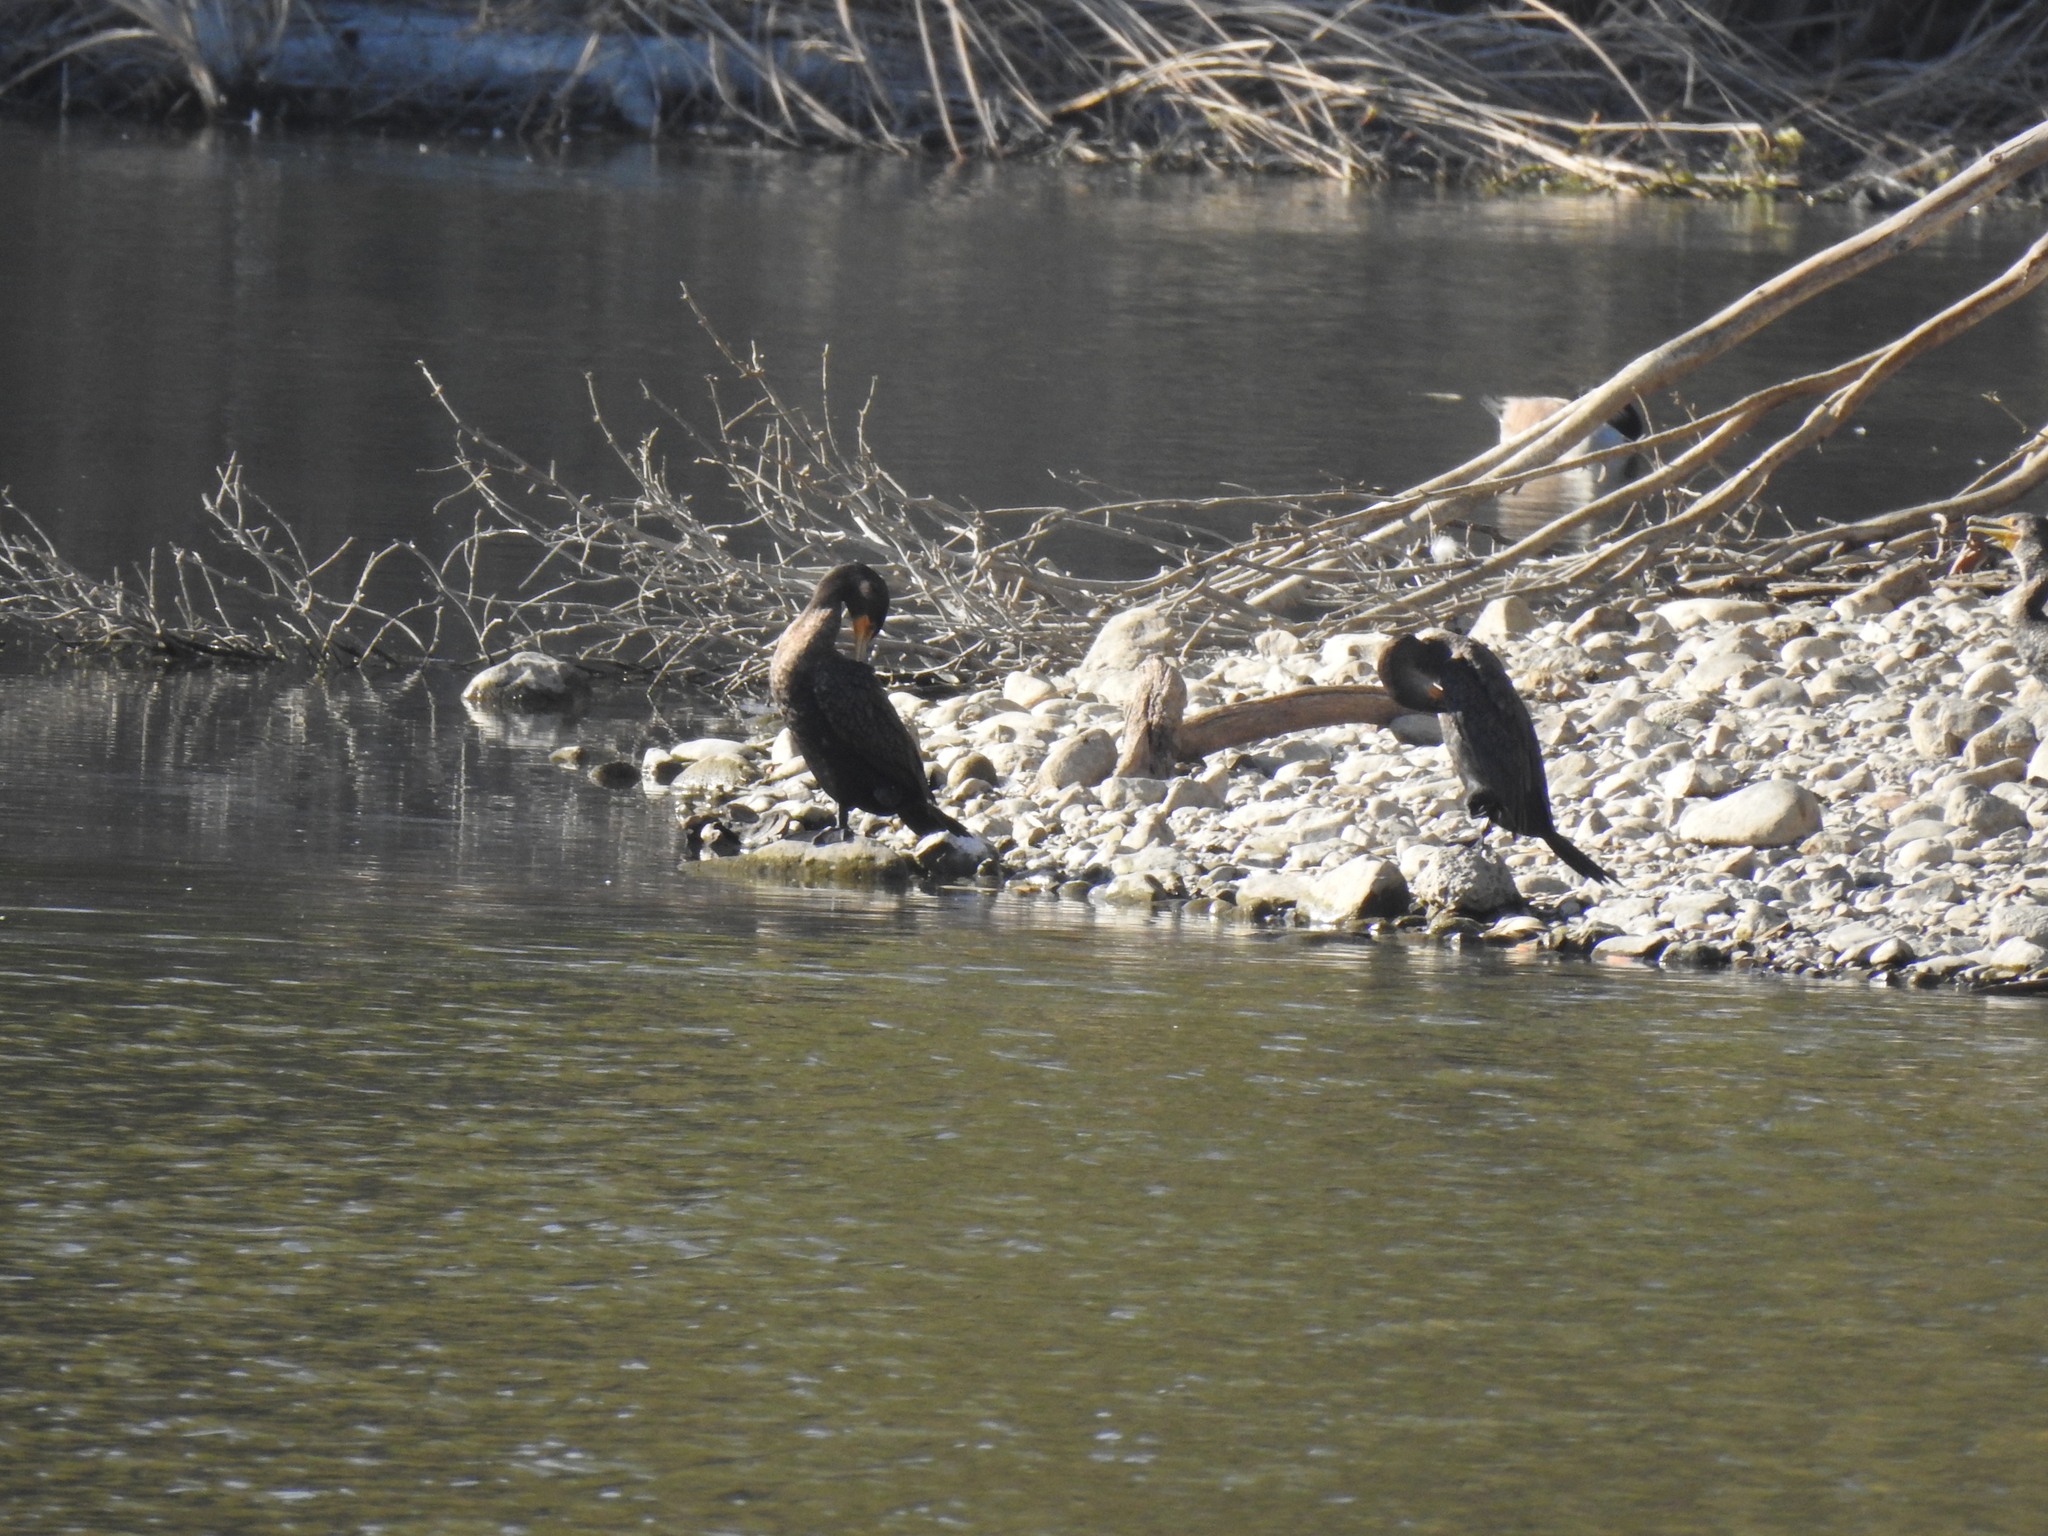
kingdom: Animalia
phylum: Chordata
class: Aves
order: Suliformes
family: Phalacrocoracidae
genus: Phalacrocorax
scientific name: Phalacrocorax auritus
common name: Double-crested cormorant
